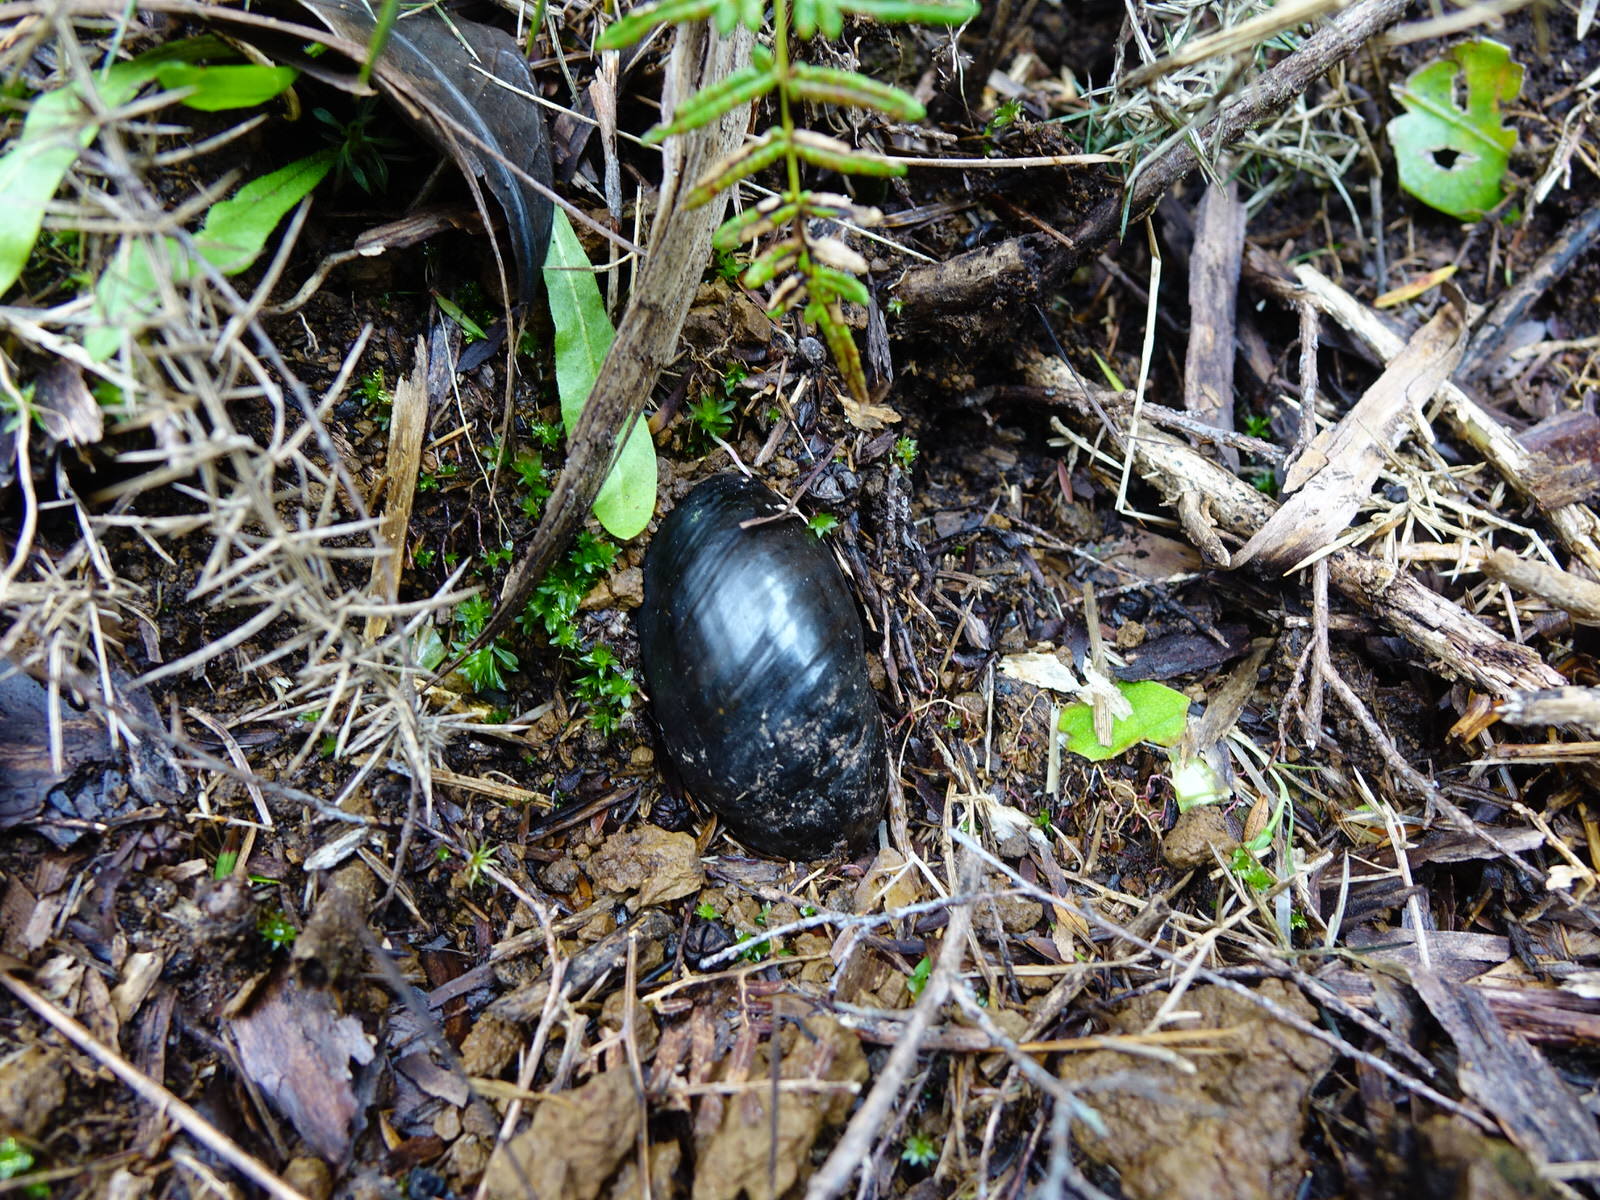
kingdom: Animalia
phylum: Mollusca
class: Gastropoda
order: Stylommatophora
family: Rhytididae
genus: Paryphanta
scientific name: Paryphanta busbyi
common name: Kauri snail
